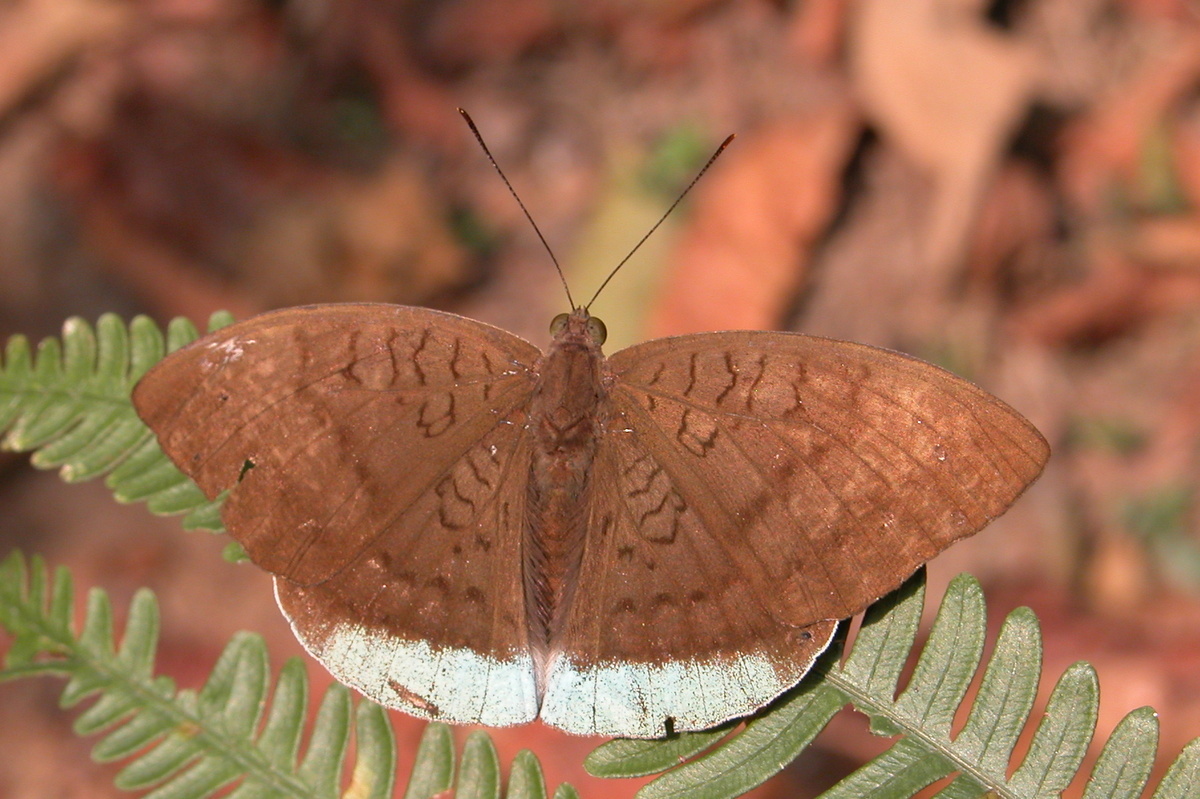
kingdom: Animalia
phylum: Arthropoda
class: Insecta
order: Lepidoptera
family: Nymphalidae
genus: Tanaecia
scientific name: Tanaecia julii
